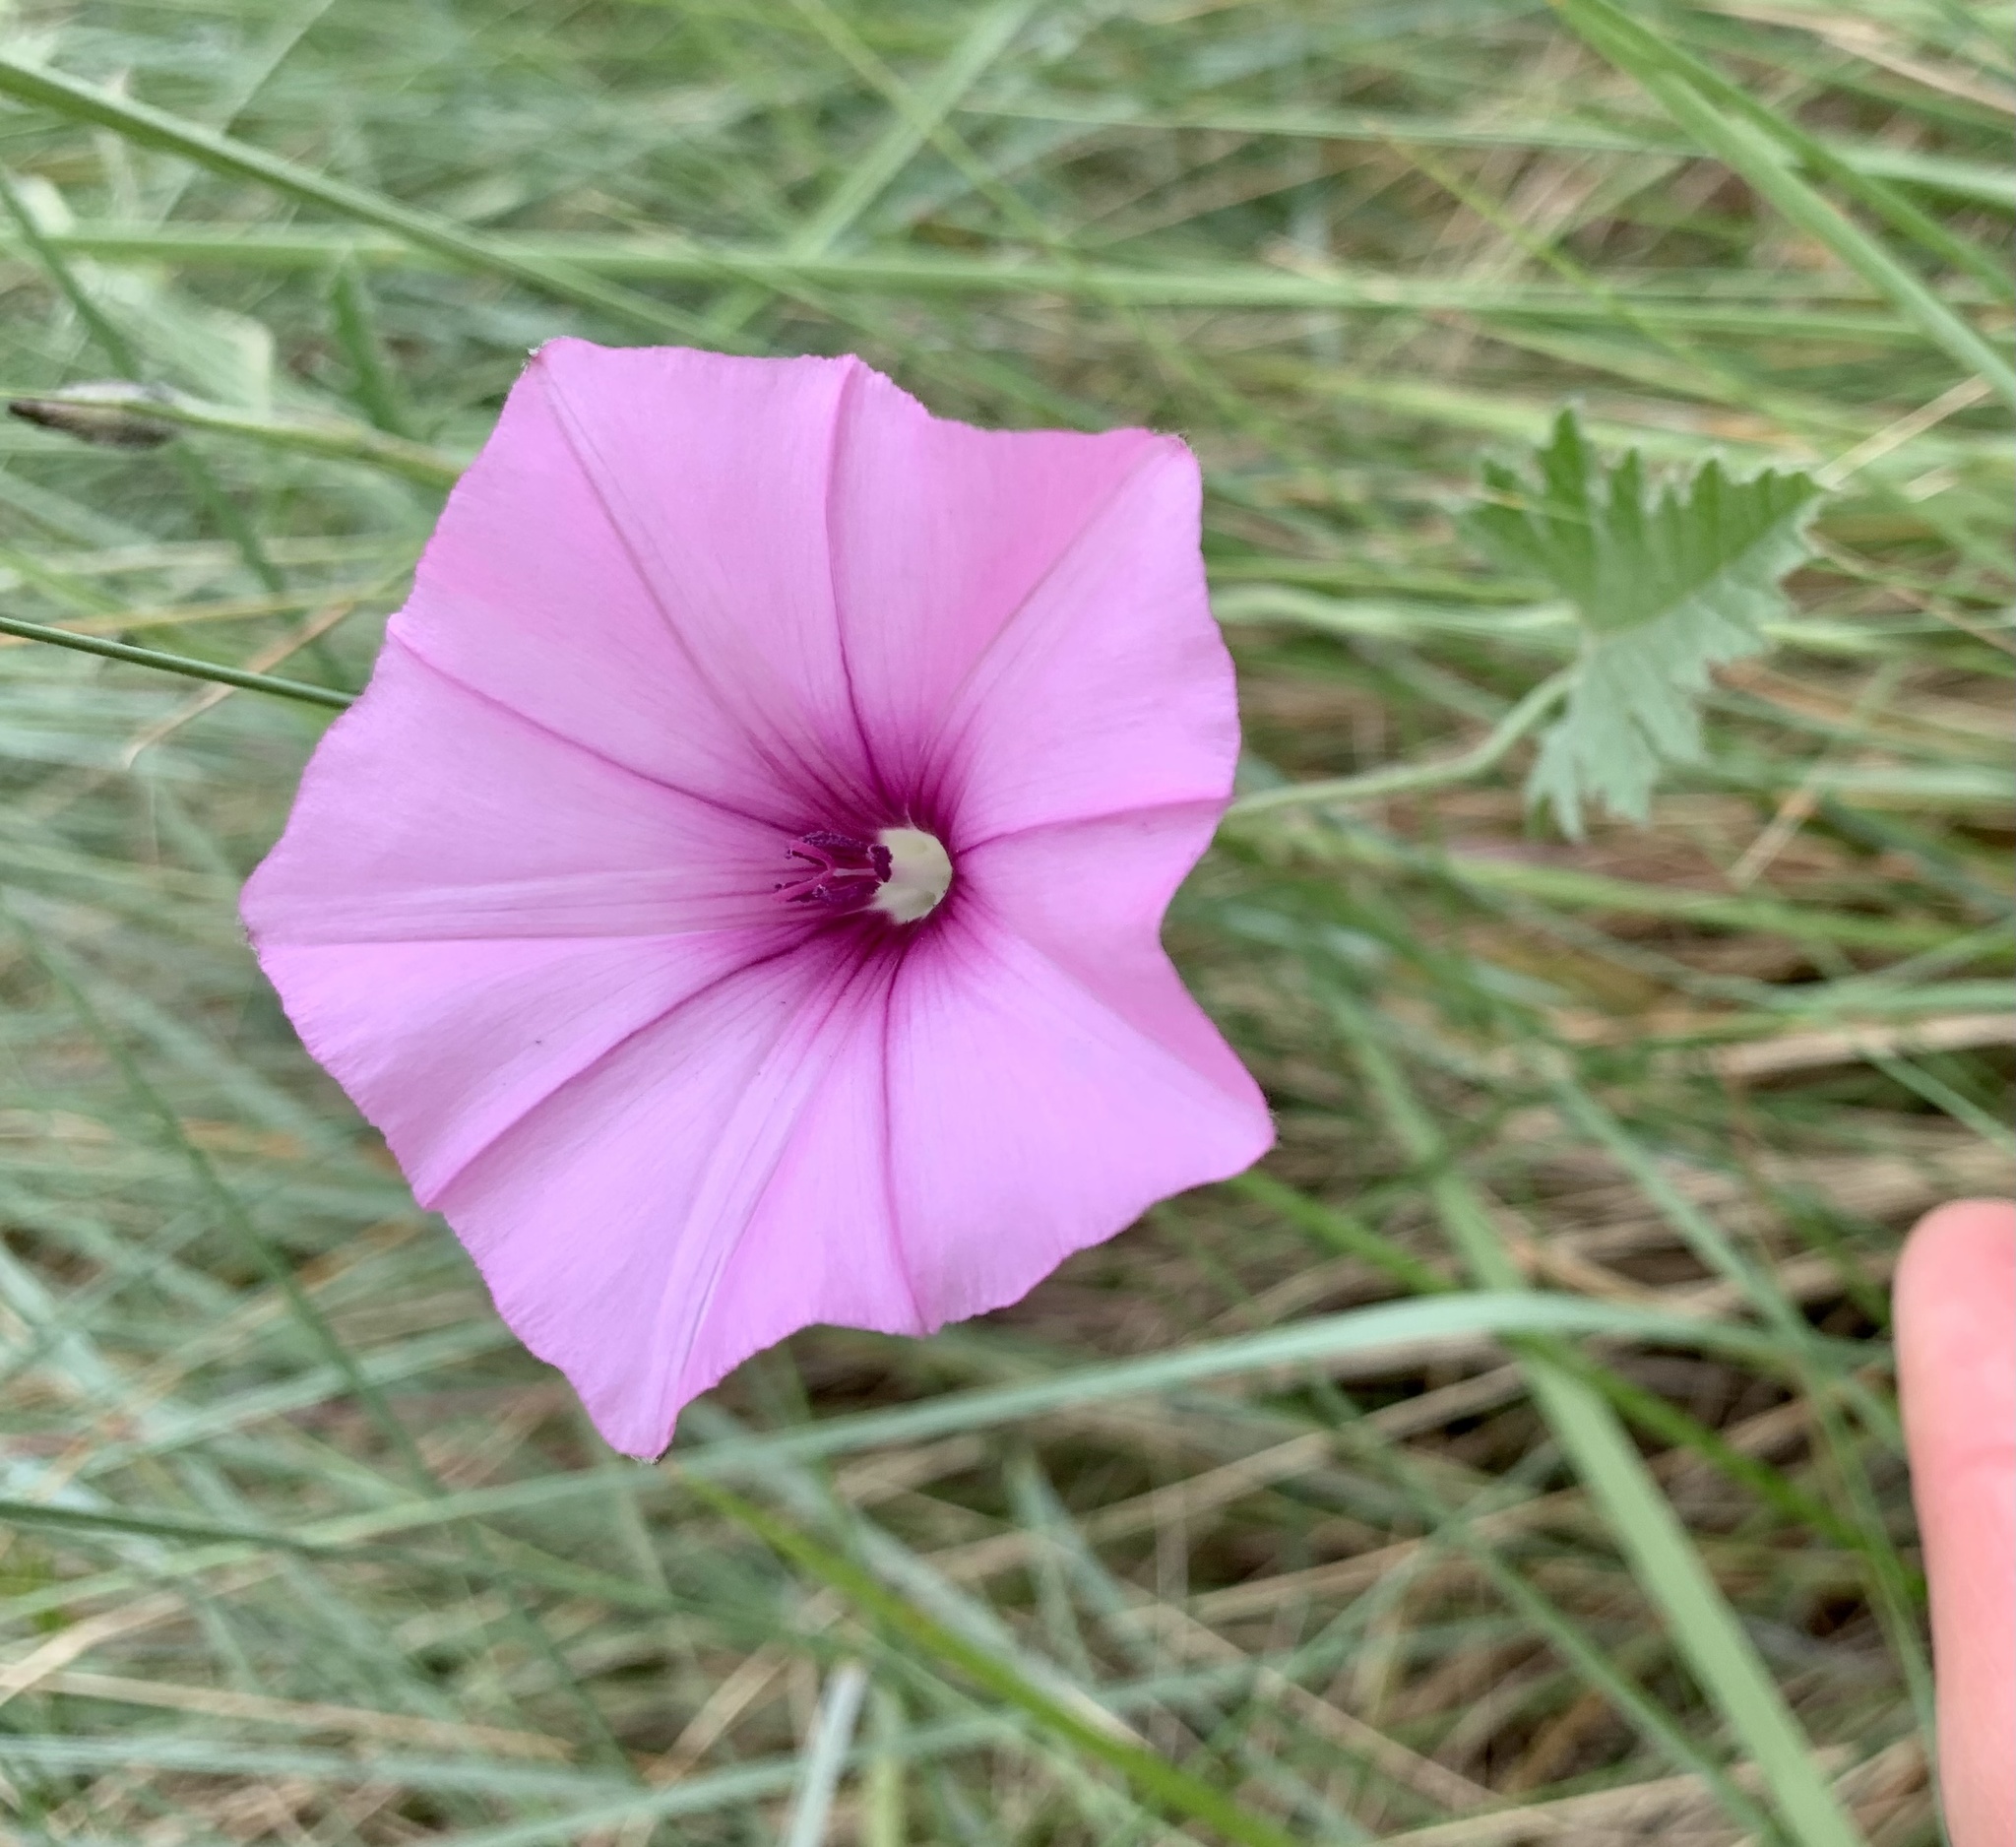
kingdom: Plantae
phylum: Tracheophyta
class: Magnoliopsida
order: Solanales
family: Convolvulaceae
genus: Convolvulus
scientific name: Convolvulus althaeoides
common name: Mallow bindweed
